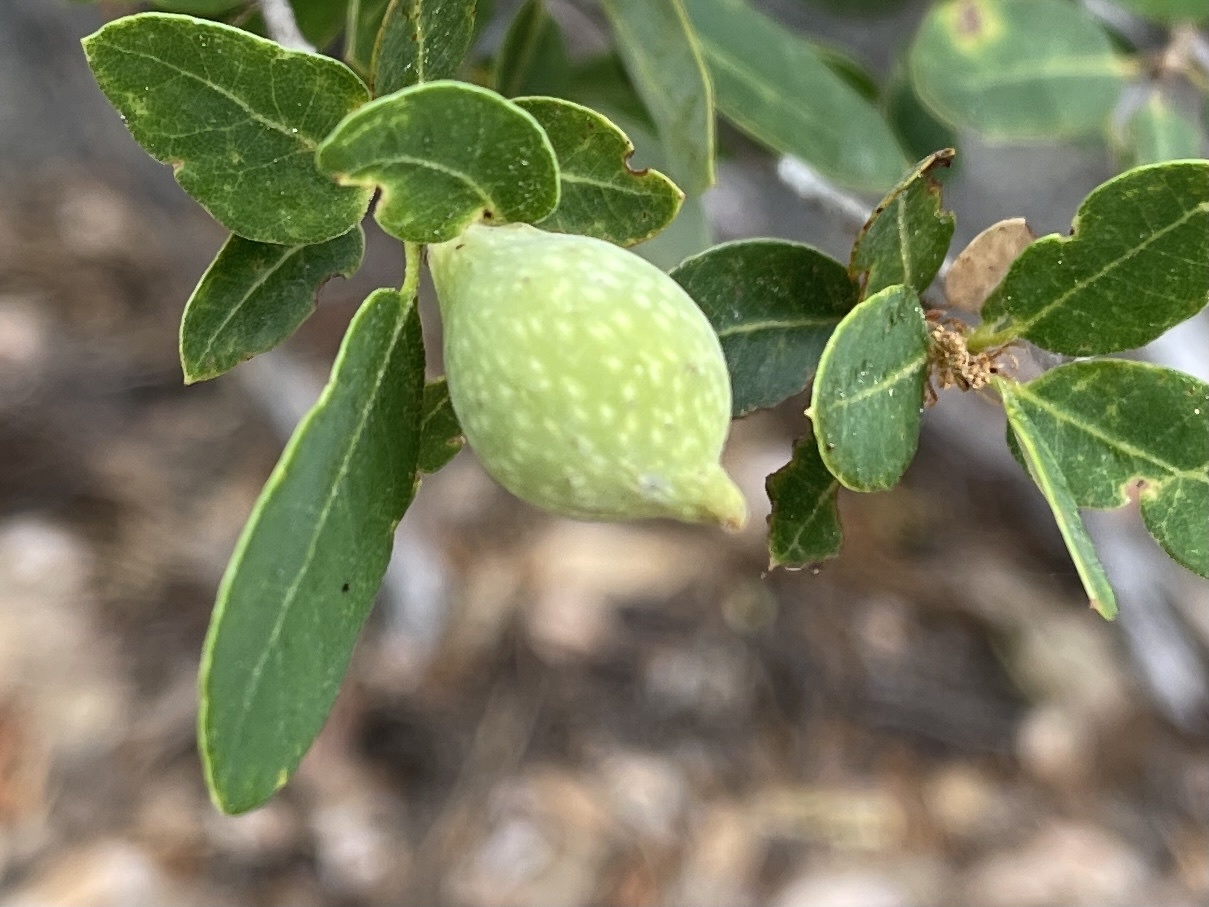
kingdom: Animalia
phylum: Arthropoda
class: Insecta
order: Hymenoptera
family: Cynipidae
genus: Heteroecus
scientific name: Heteroecus pacificus
